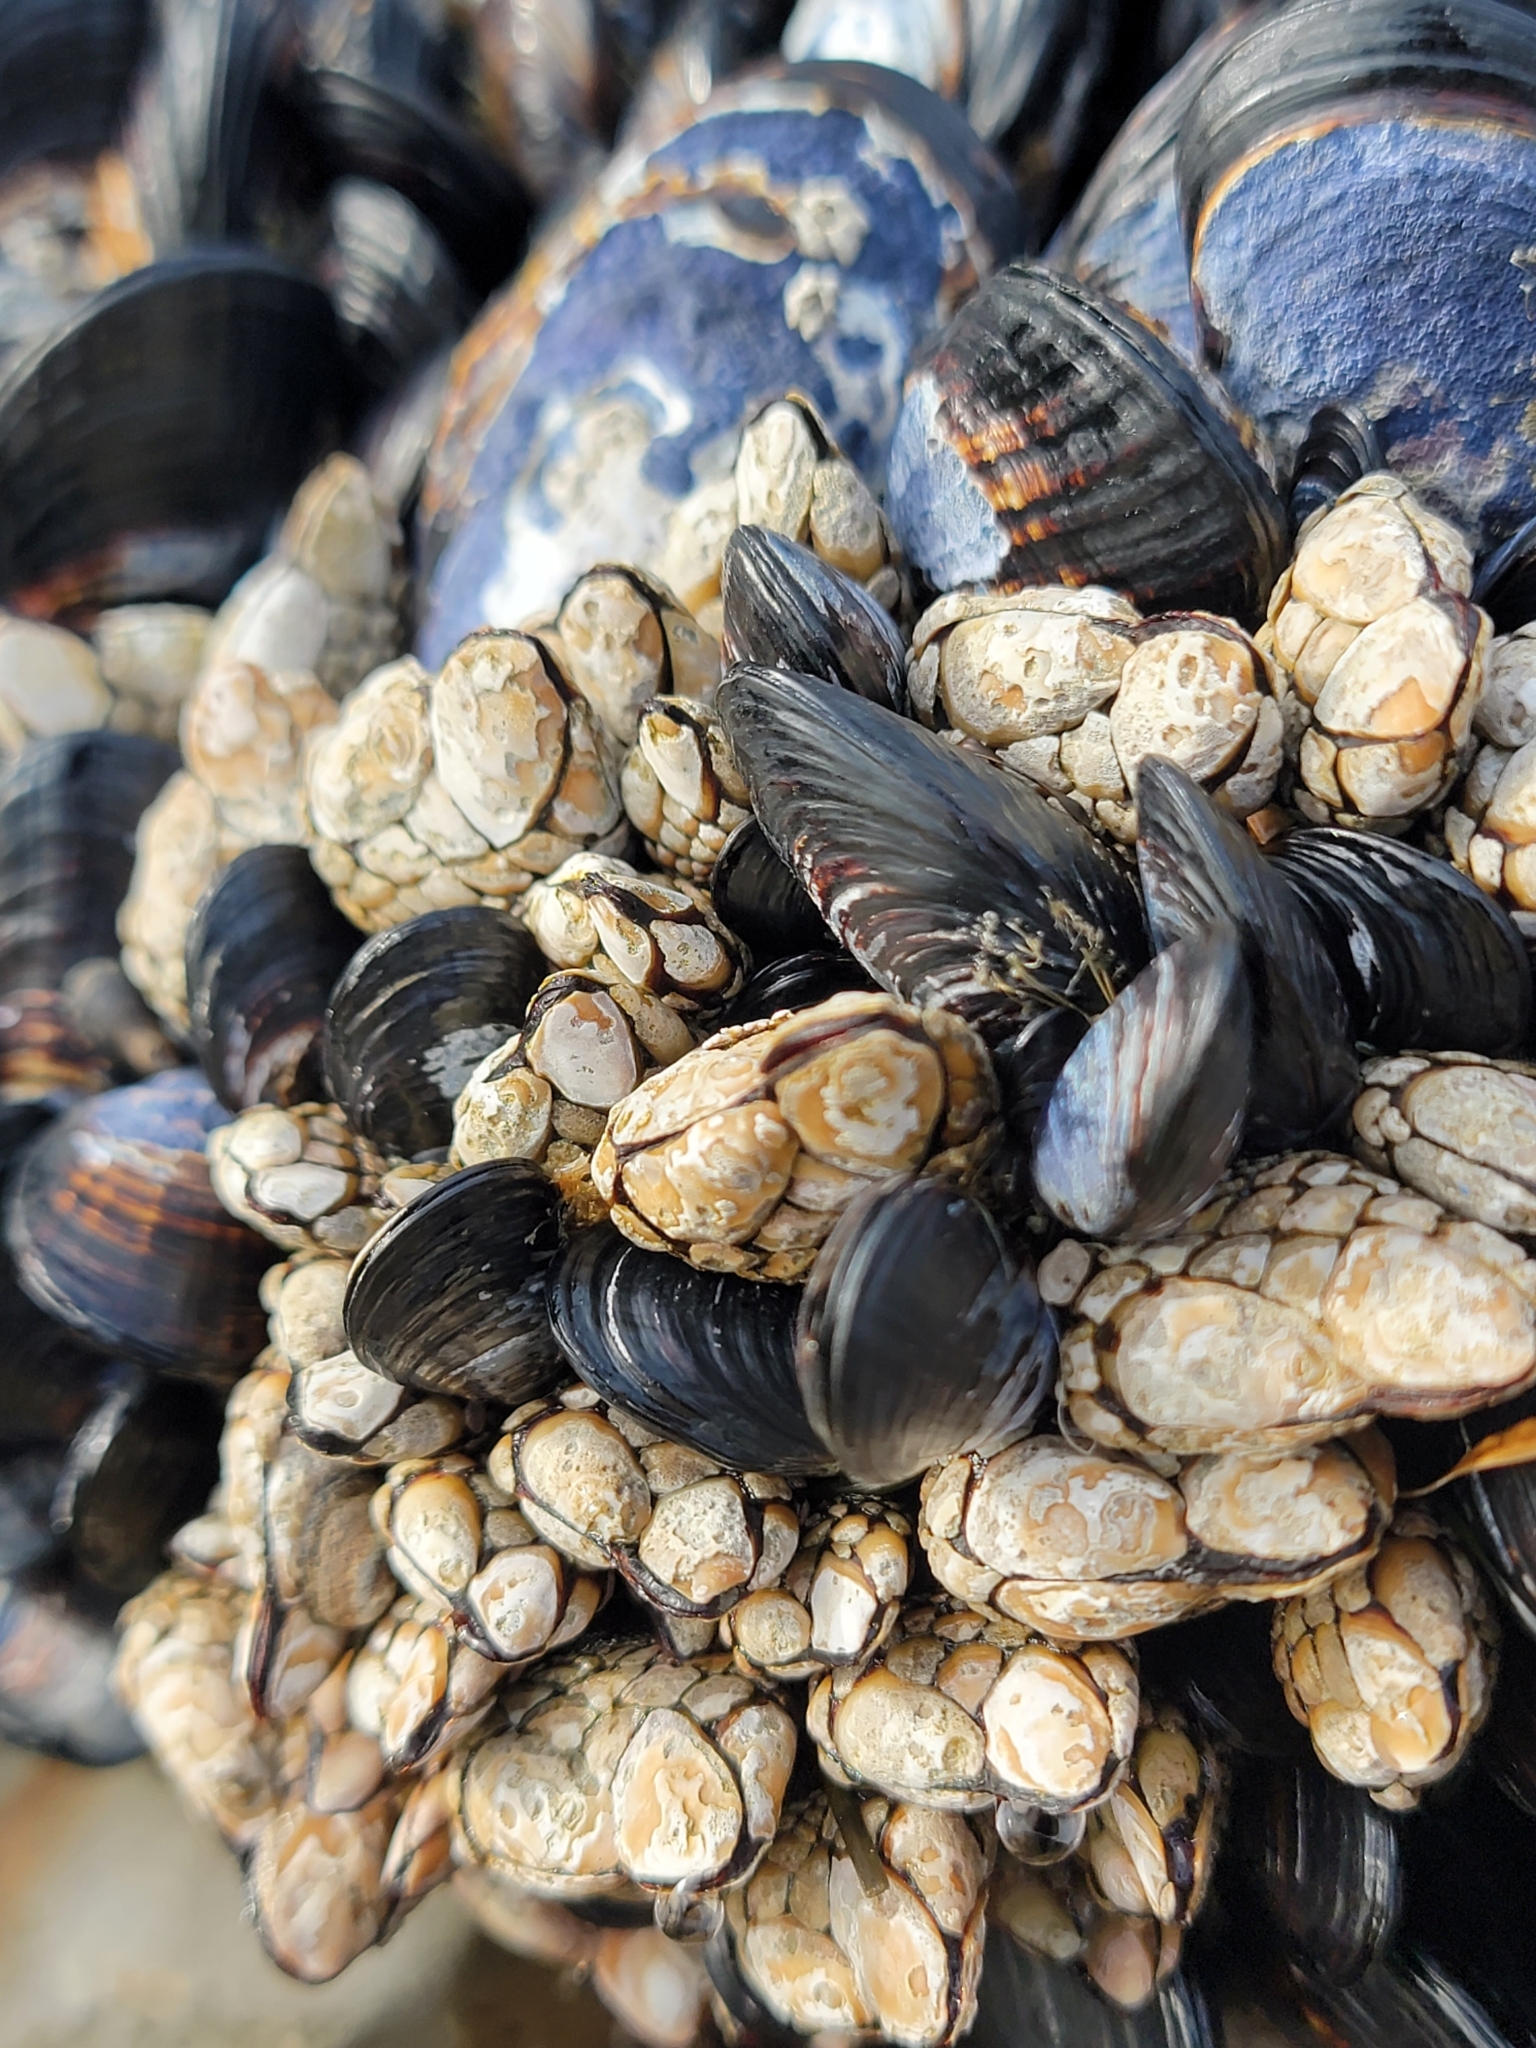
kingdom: Animalia
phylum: Arthropoda
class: Maxillopoda
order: Pedunculata
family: Pollicipedidae
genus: Pollicipes
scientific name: Pollicipes polymerus
